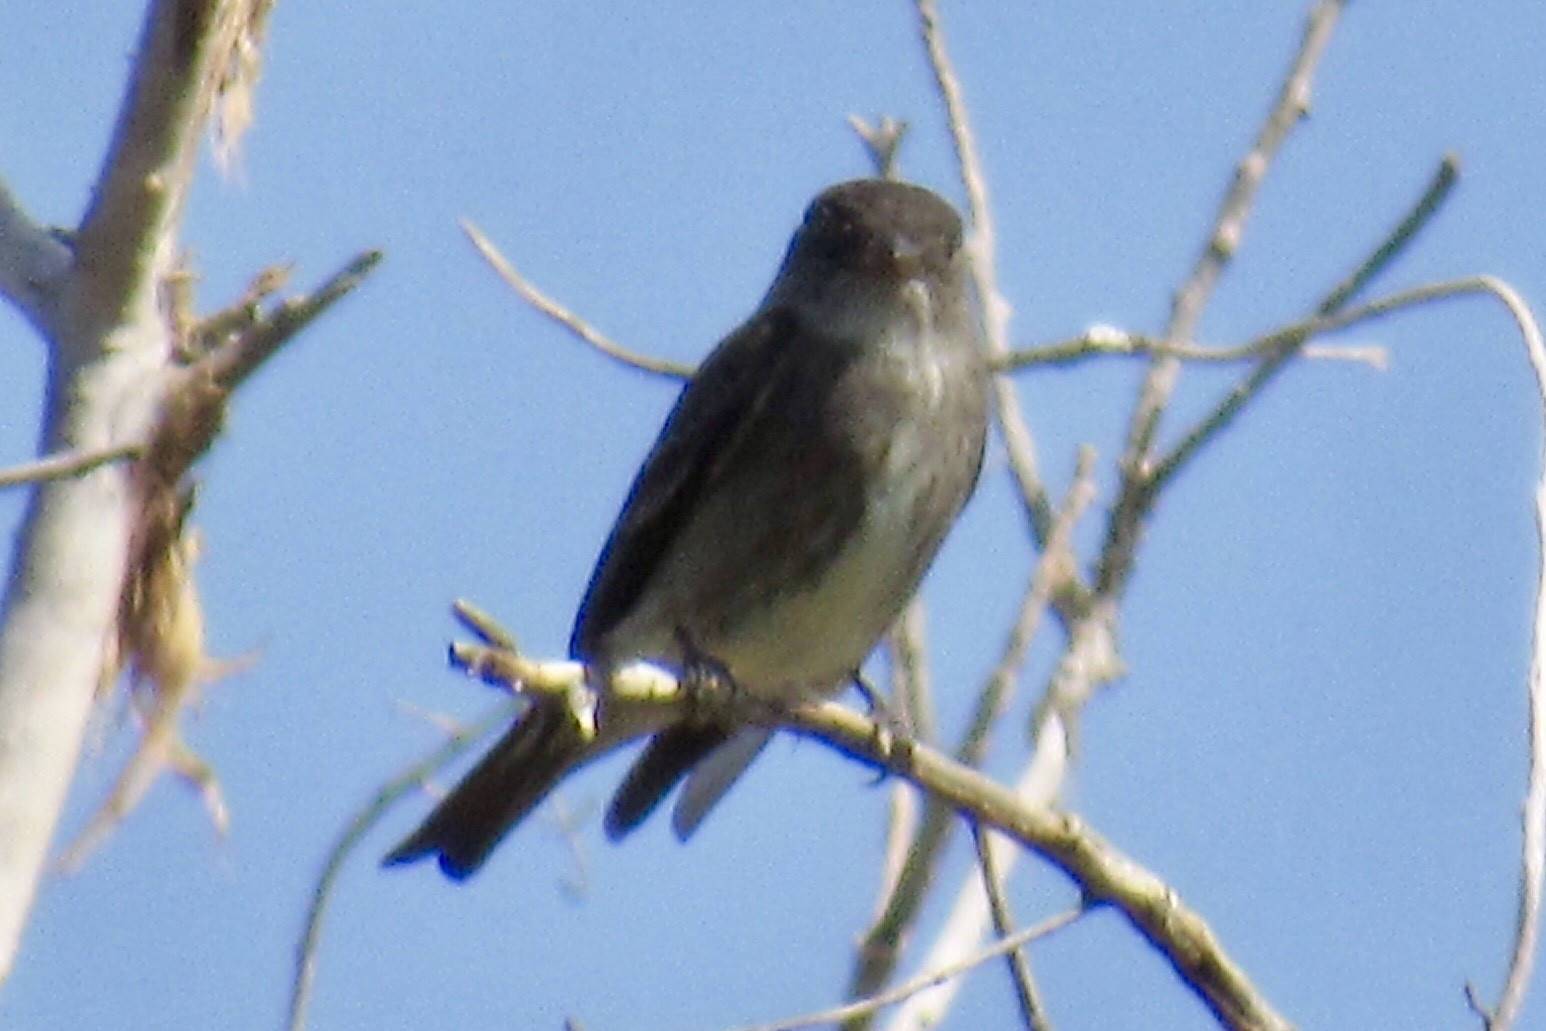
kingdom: Animalia
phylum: Chordata
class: Aves
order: Passeriformes
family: Tyrannidae
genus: Contopus
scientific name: Contopus cooperi
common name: Olive-sided flycatcher
